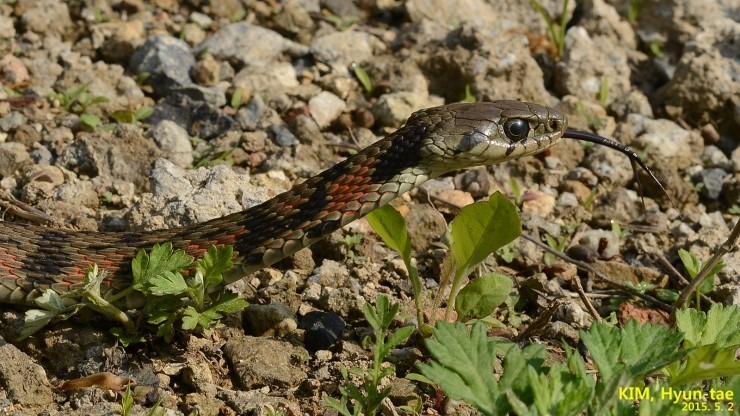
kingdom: Animalia
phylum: Chordata
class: Squamata
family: Colubridae
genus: Rhabdophis
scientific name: Rhabdophis tigrinus
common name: Tiger keelback
